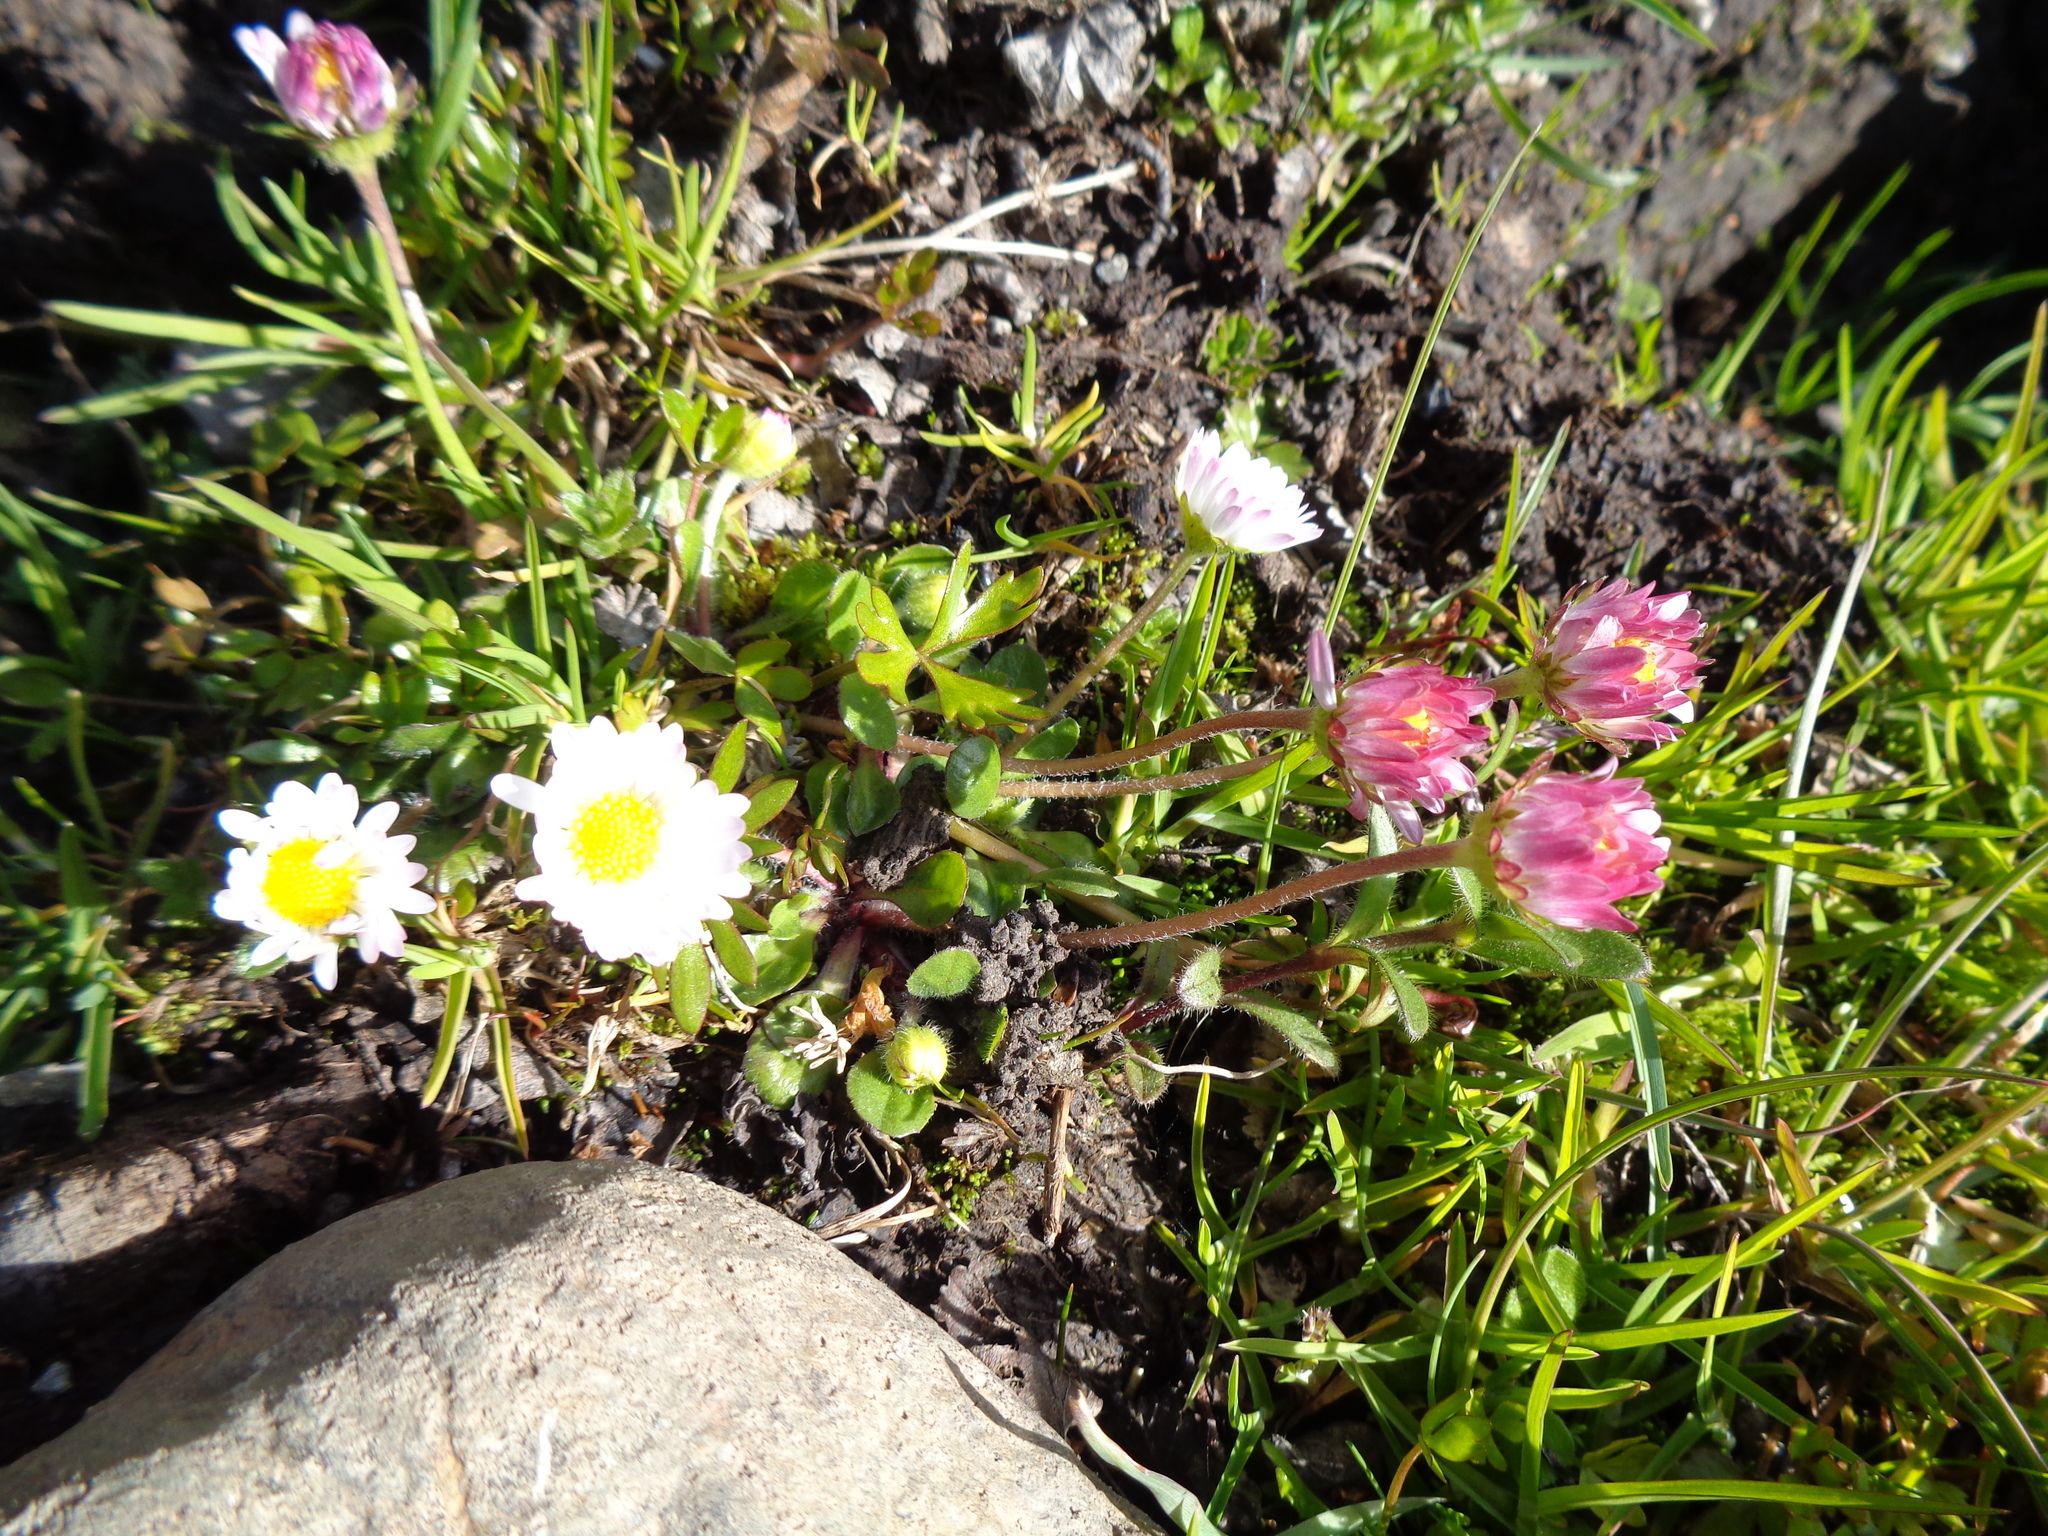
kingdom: Plantae
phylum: Tracheophyta
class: Magnoliopsida
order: Asterales
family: Asteraceae
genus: Bellis
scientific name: Bellis perennis
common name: Lawndaisy
